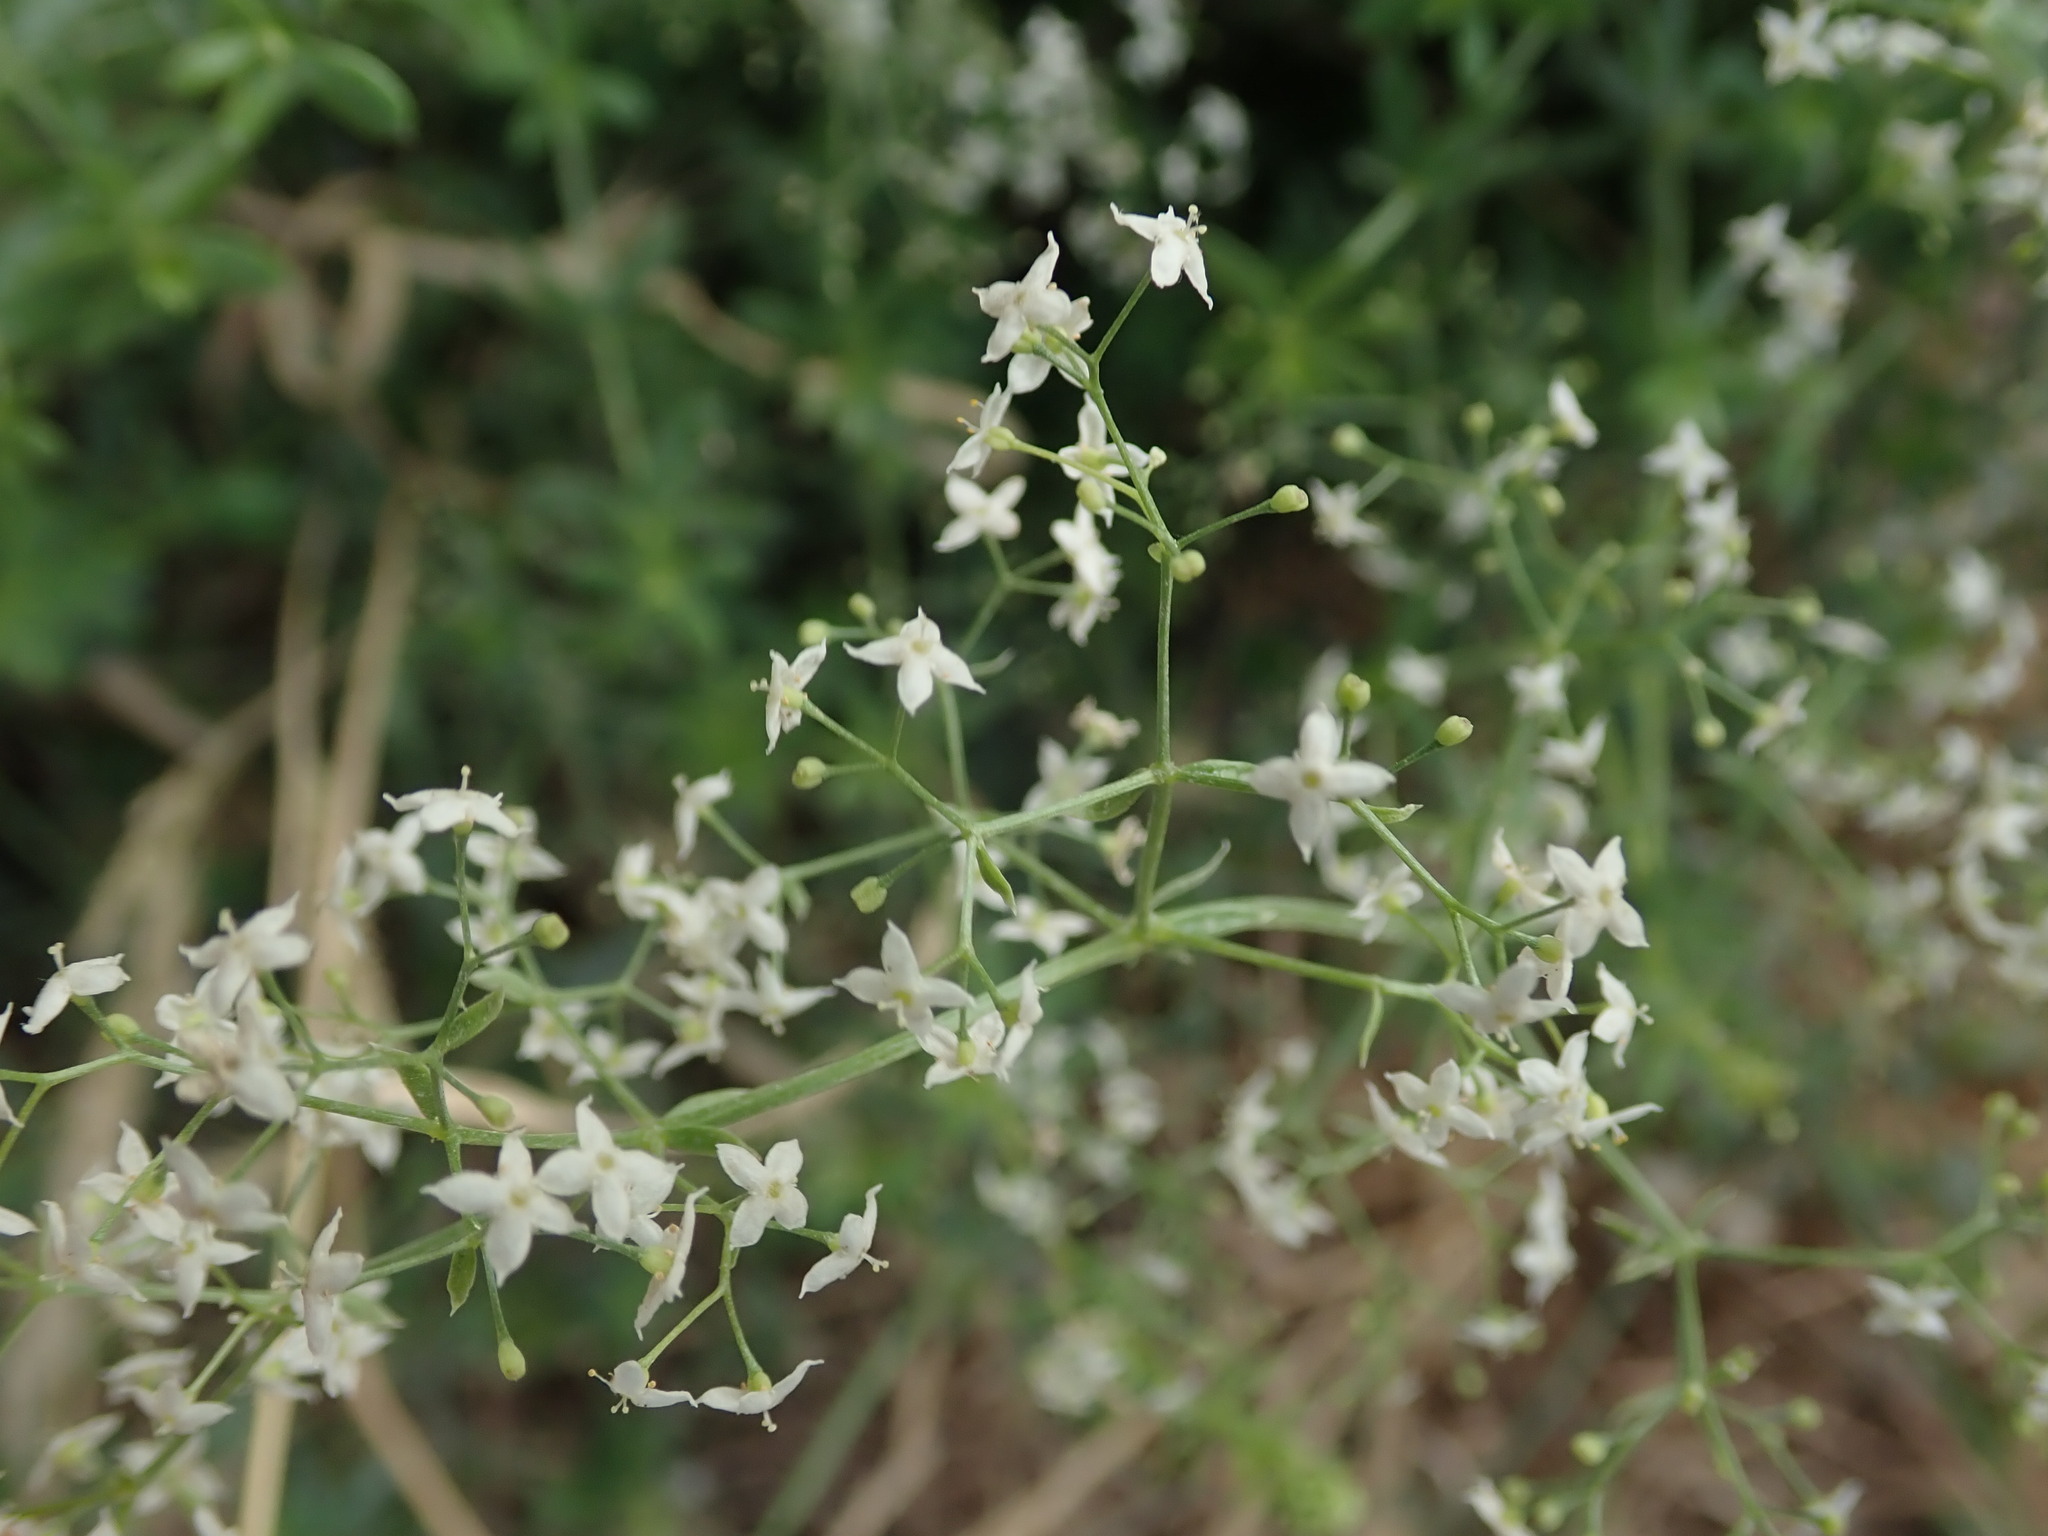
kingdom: Plantae
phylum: Tracheophyta
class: Magnoliopsida
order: Gentianales
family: Rubiaceae
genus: Galium
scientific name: Galium album
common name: White bedstraw
